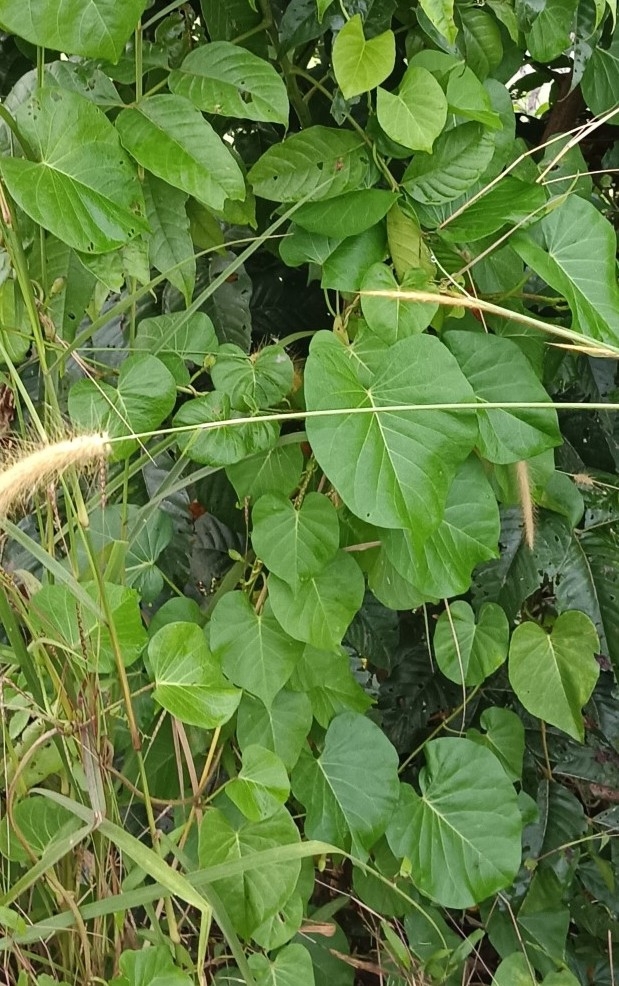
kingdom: Plantae
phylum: Tracheophyta
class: Magnoliopsida
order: Solanales
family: Convolvulaceae
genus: Ipomoea
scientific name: Ipomoea violacea
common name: Beach moonflower
